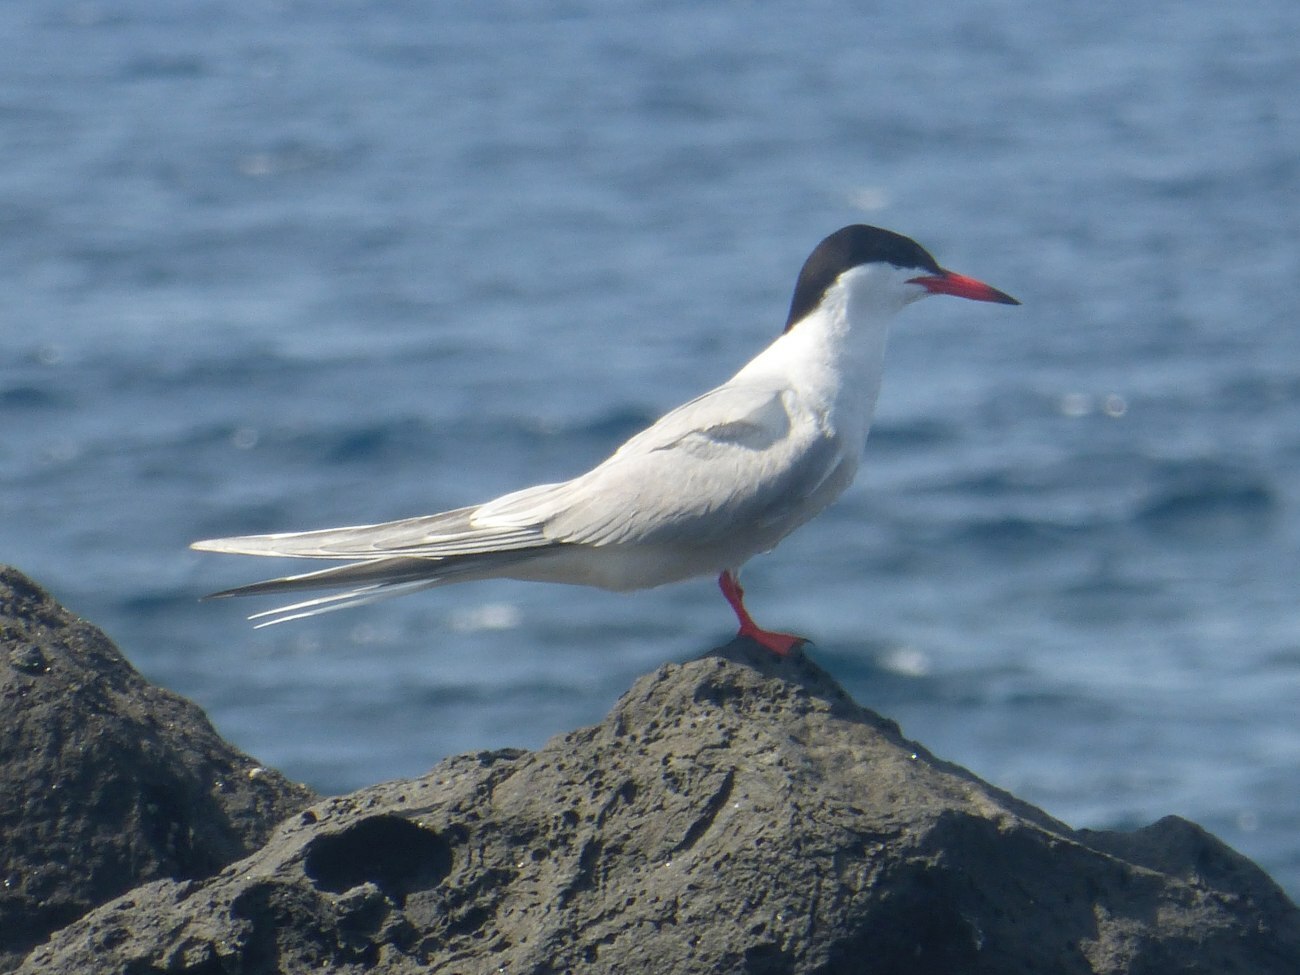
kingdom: Animalia
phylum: Chordata
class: Aves
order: Charadriiformes
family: Laridae
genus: Sterna
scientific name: Sterna hirundo
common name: Common tern
